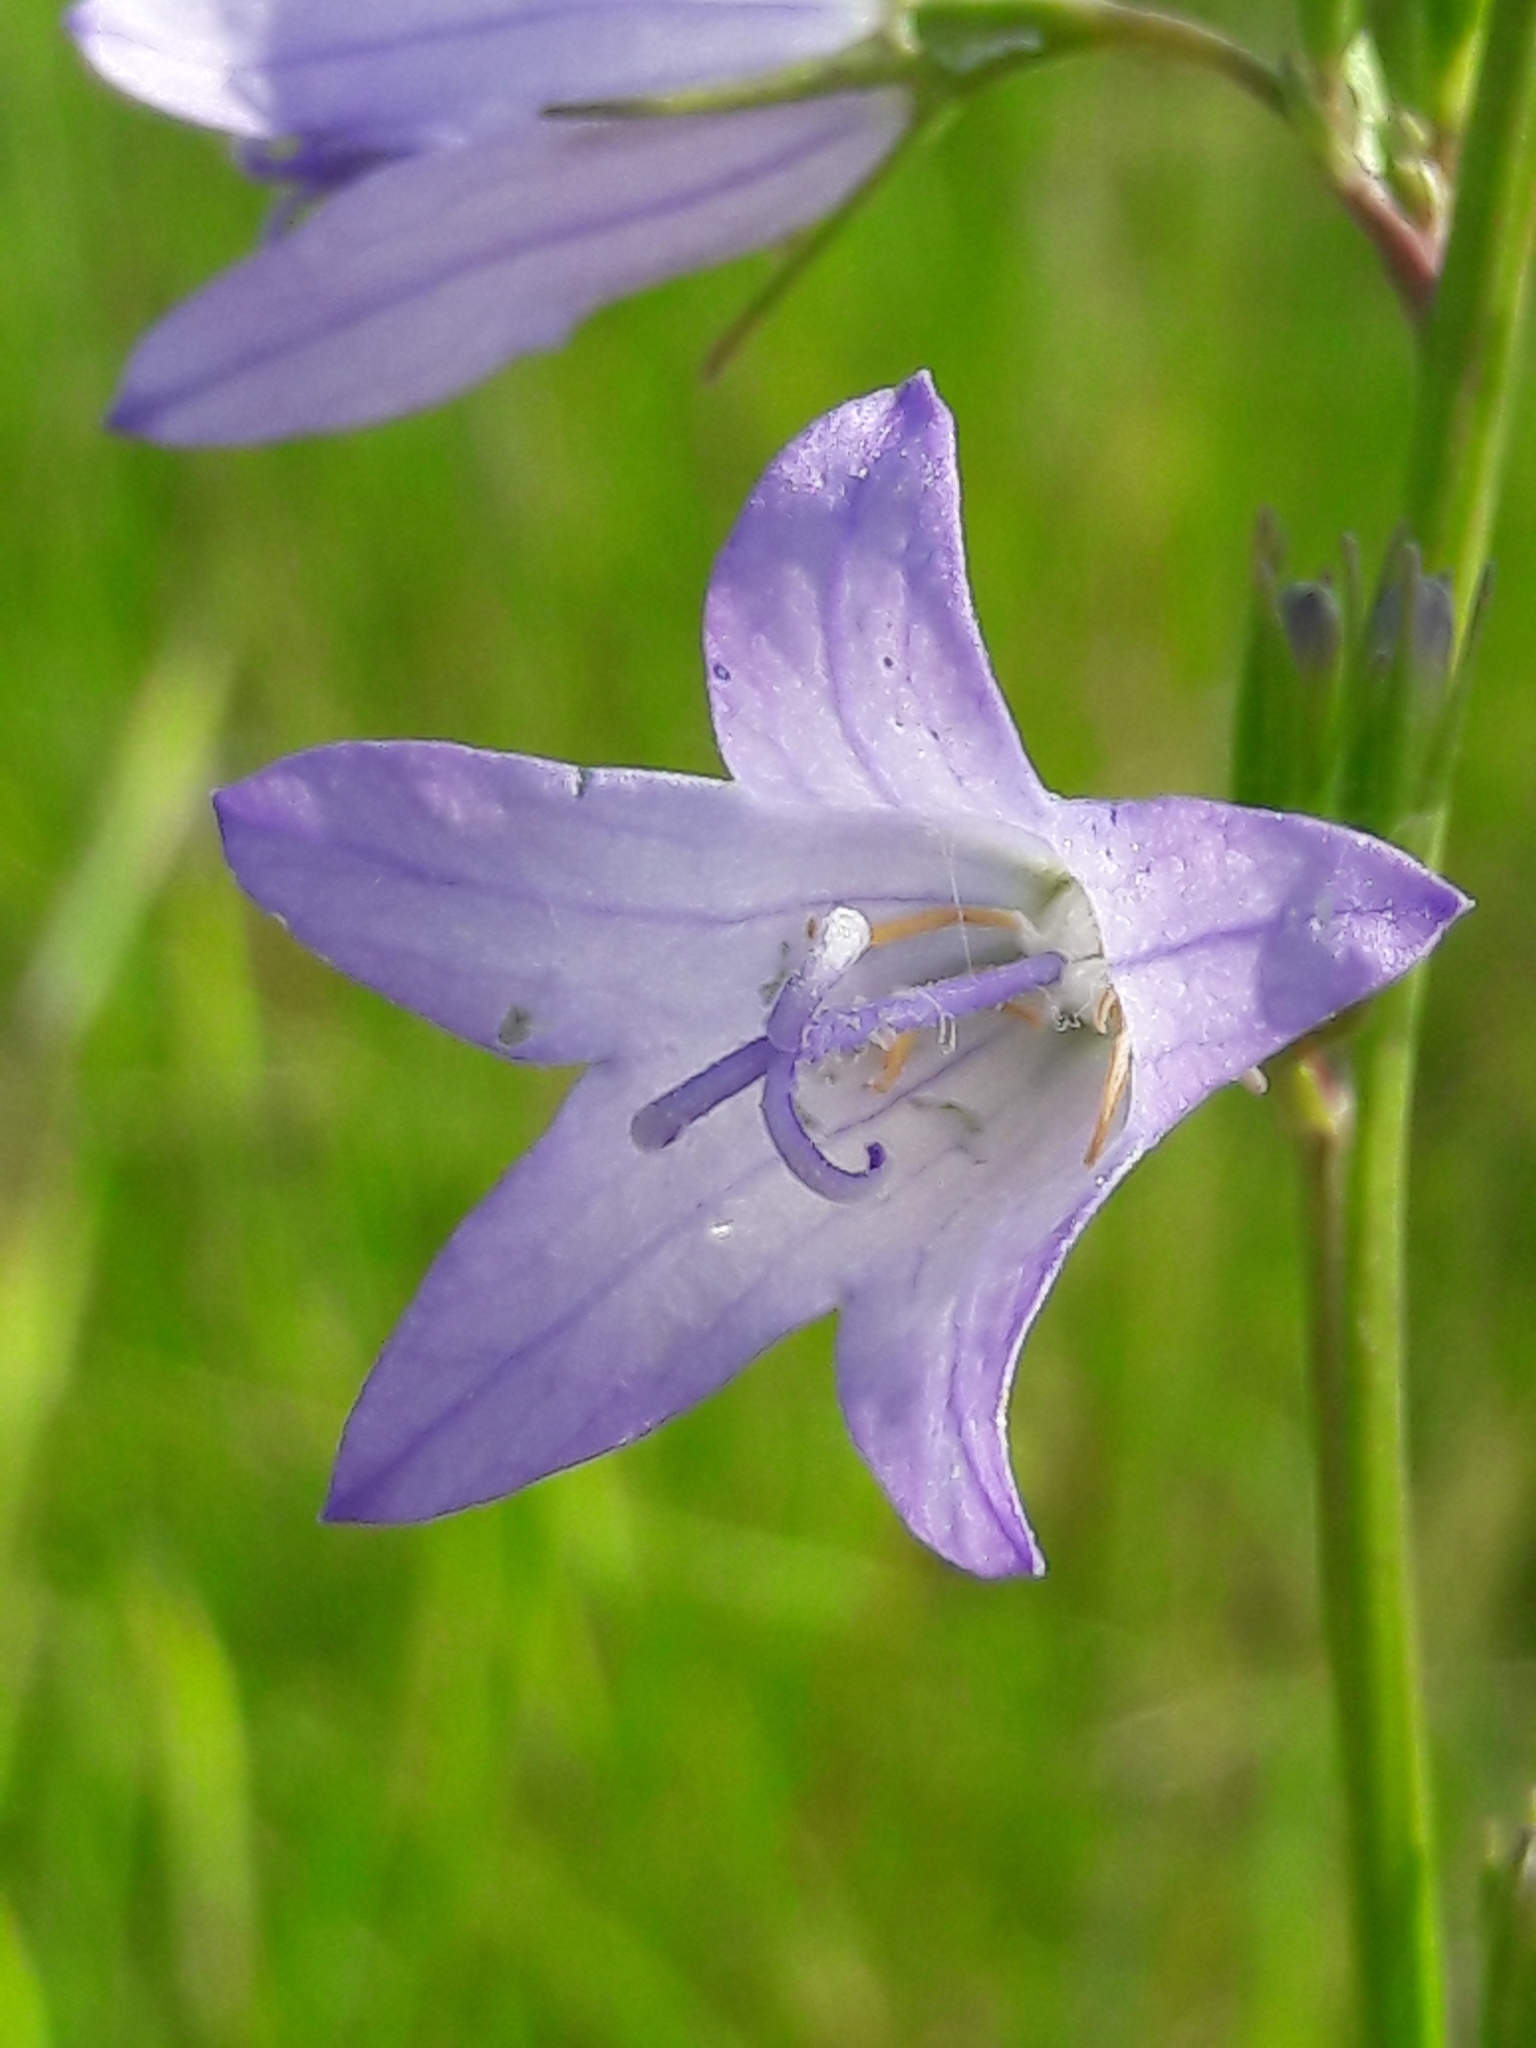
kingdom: Plantae
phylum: Tracheophyta
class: Magnoliopsida
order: Asterales
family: Campanulaceae
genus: Campanula
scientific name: Campanula rapunculus
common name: Rampion bellflower
